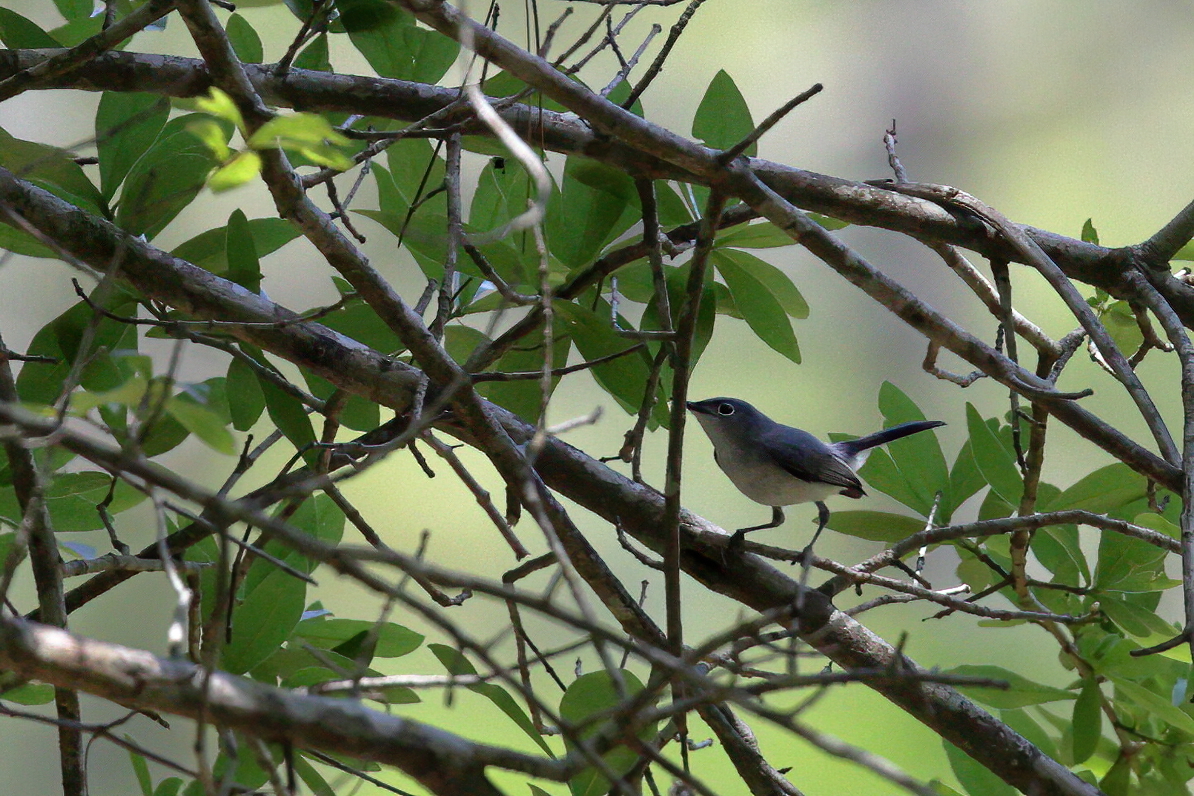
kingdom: Animalia
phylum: Chordata
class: Aves
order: Passeriformes
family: Polioptilidae
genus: Polioptila
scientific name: Polioptila caerulea
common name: Blue-gray gnatcatcher
